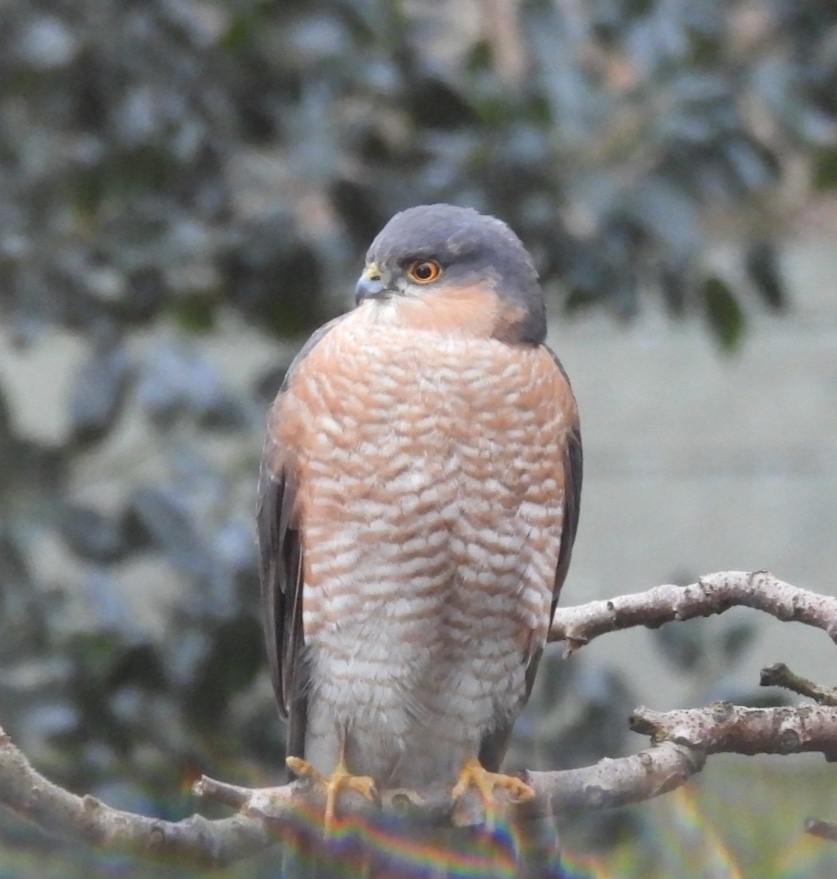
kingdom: Animalia
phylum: Chordata
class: Aves
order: Accipitriformes
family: Accipitridae
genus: Accipiter
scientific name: Accipiter nisus
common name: Eurasian sparrowhawk
